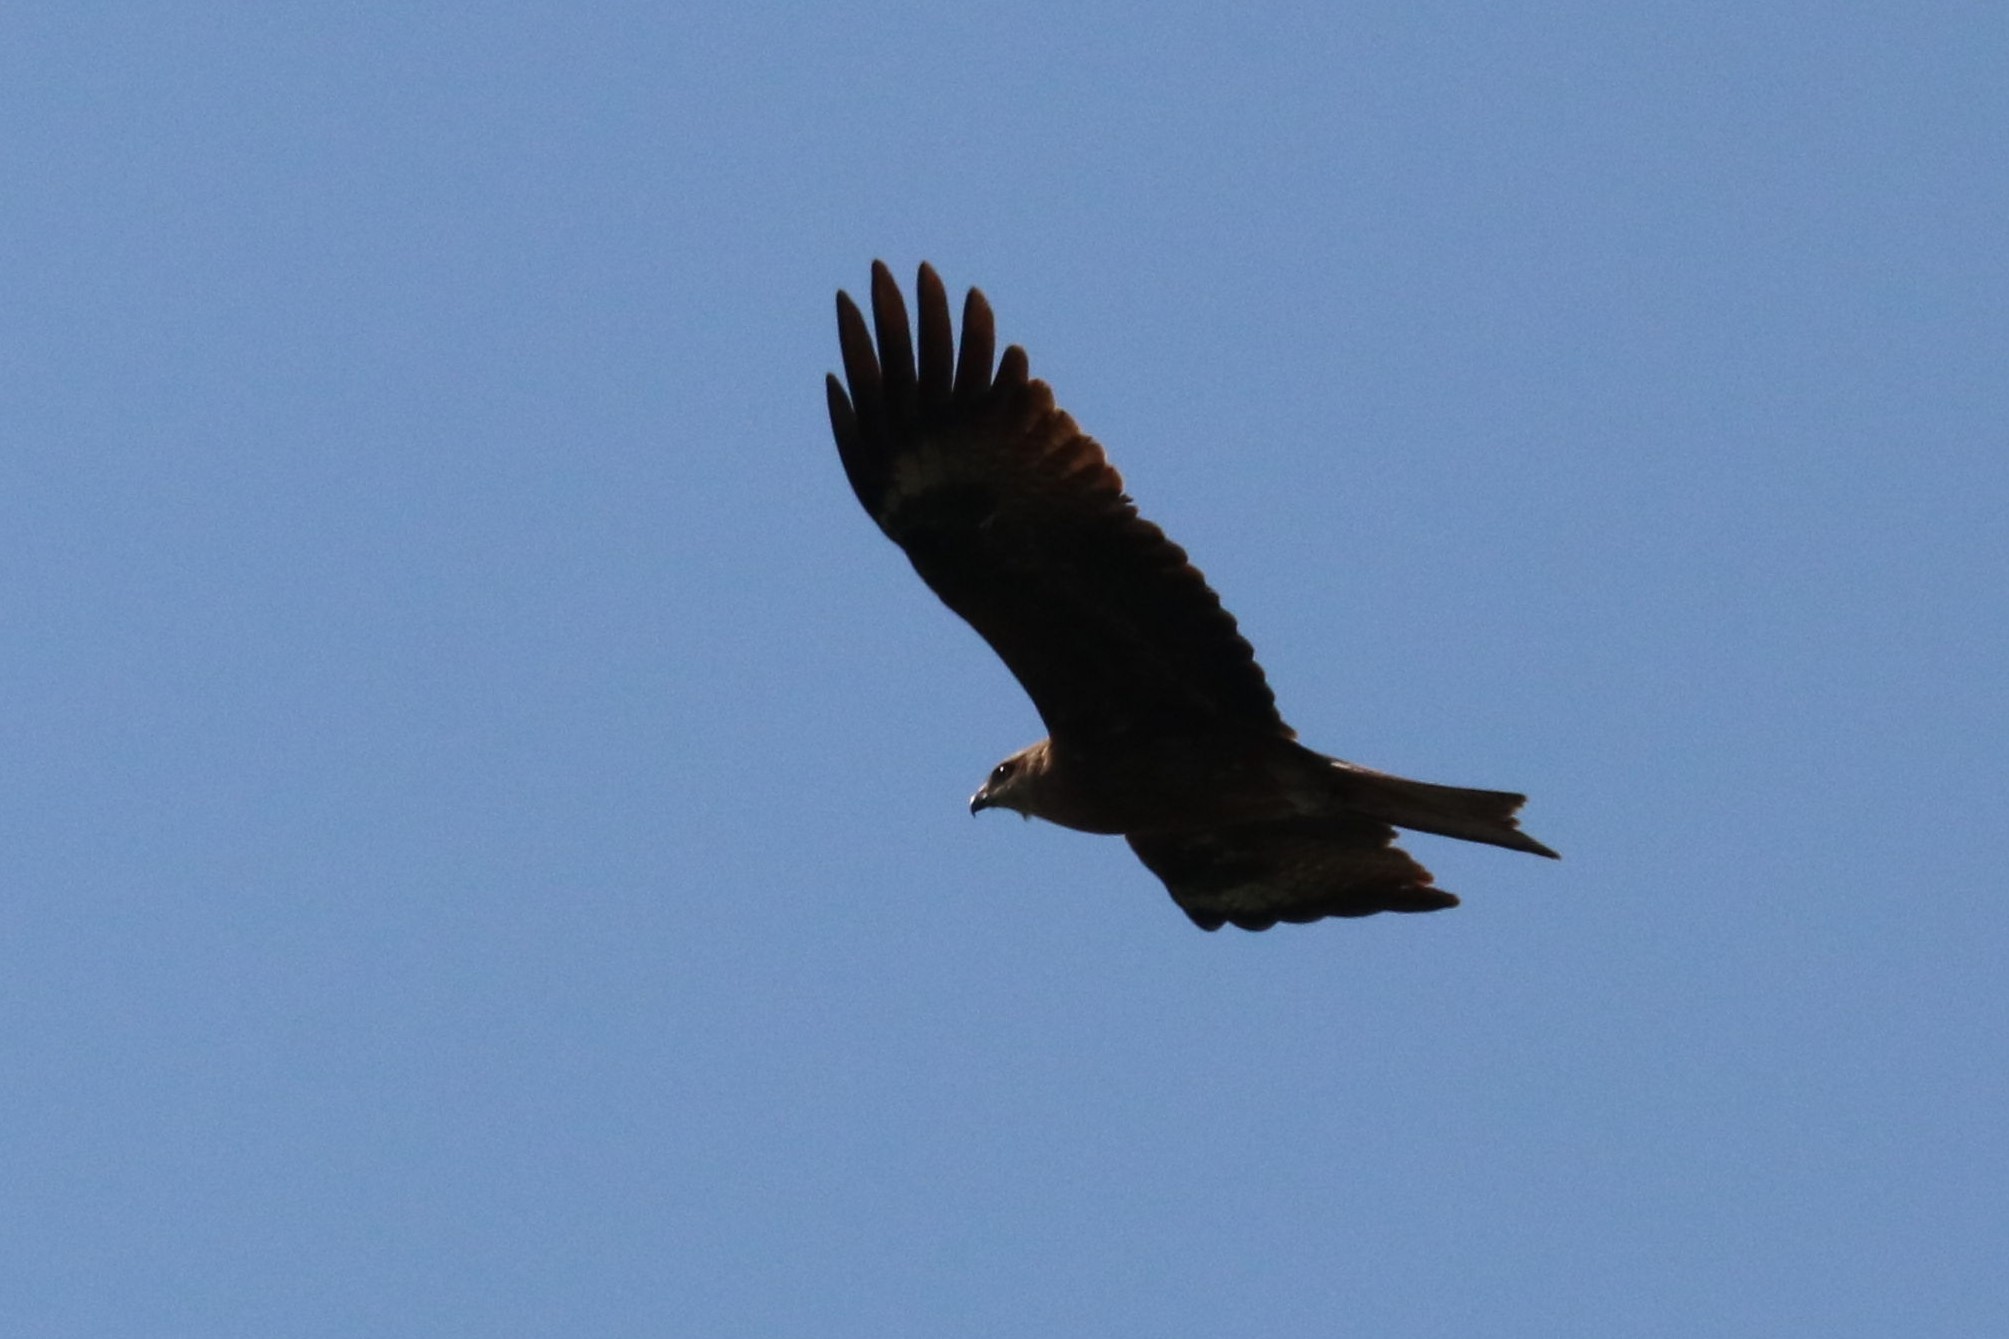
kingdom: Animalia
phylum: Chordata
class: Aves
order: Accipitriformes
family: Accipitridae
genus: Milvus
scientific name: Milvus migrans
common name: Black kite
